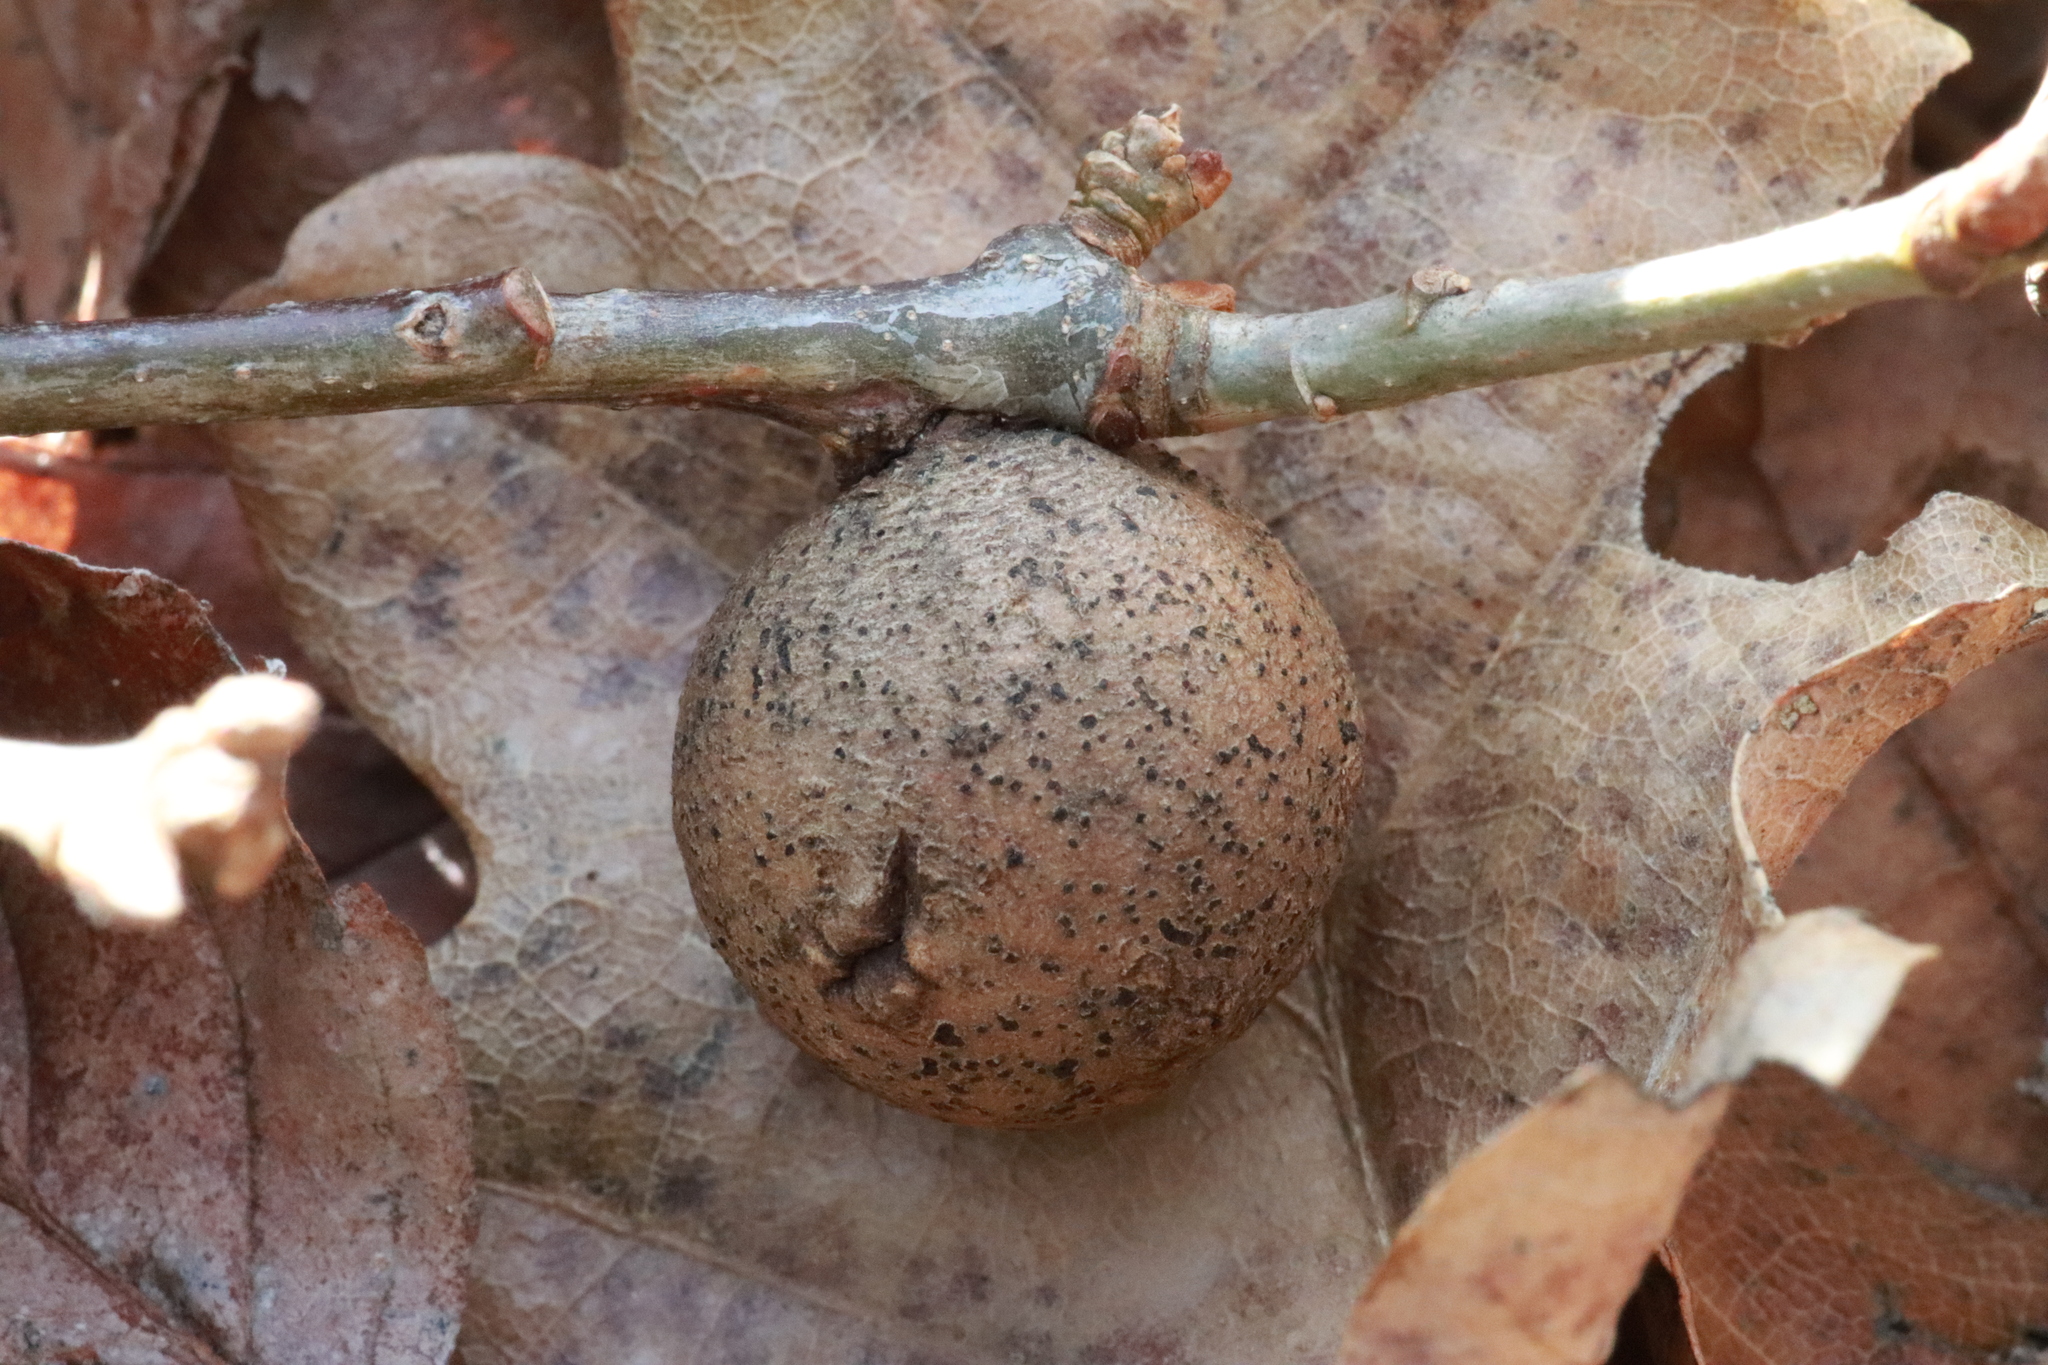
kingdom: Animalia
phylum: Arthropoda
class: Insecta
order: Hymenoptera
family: Cynipidae
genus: Andricus
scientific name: Andricus kollari
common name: Marble gall
